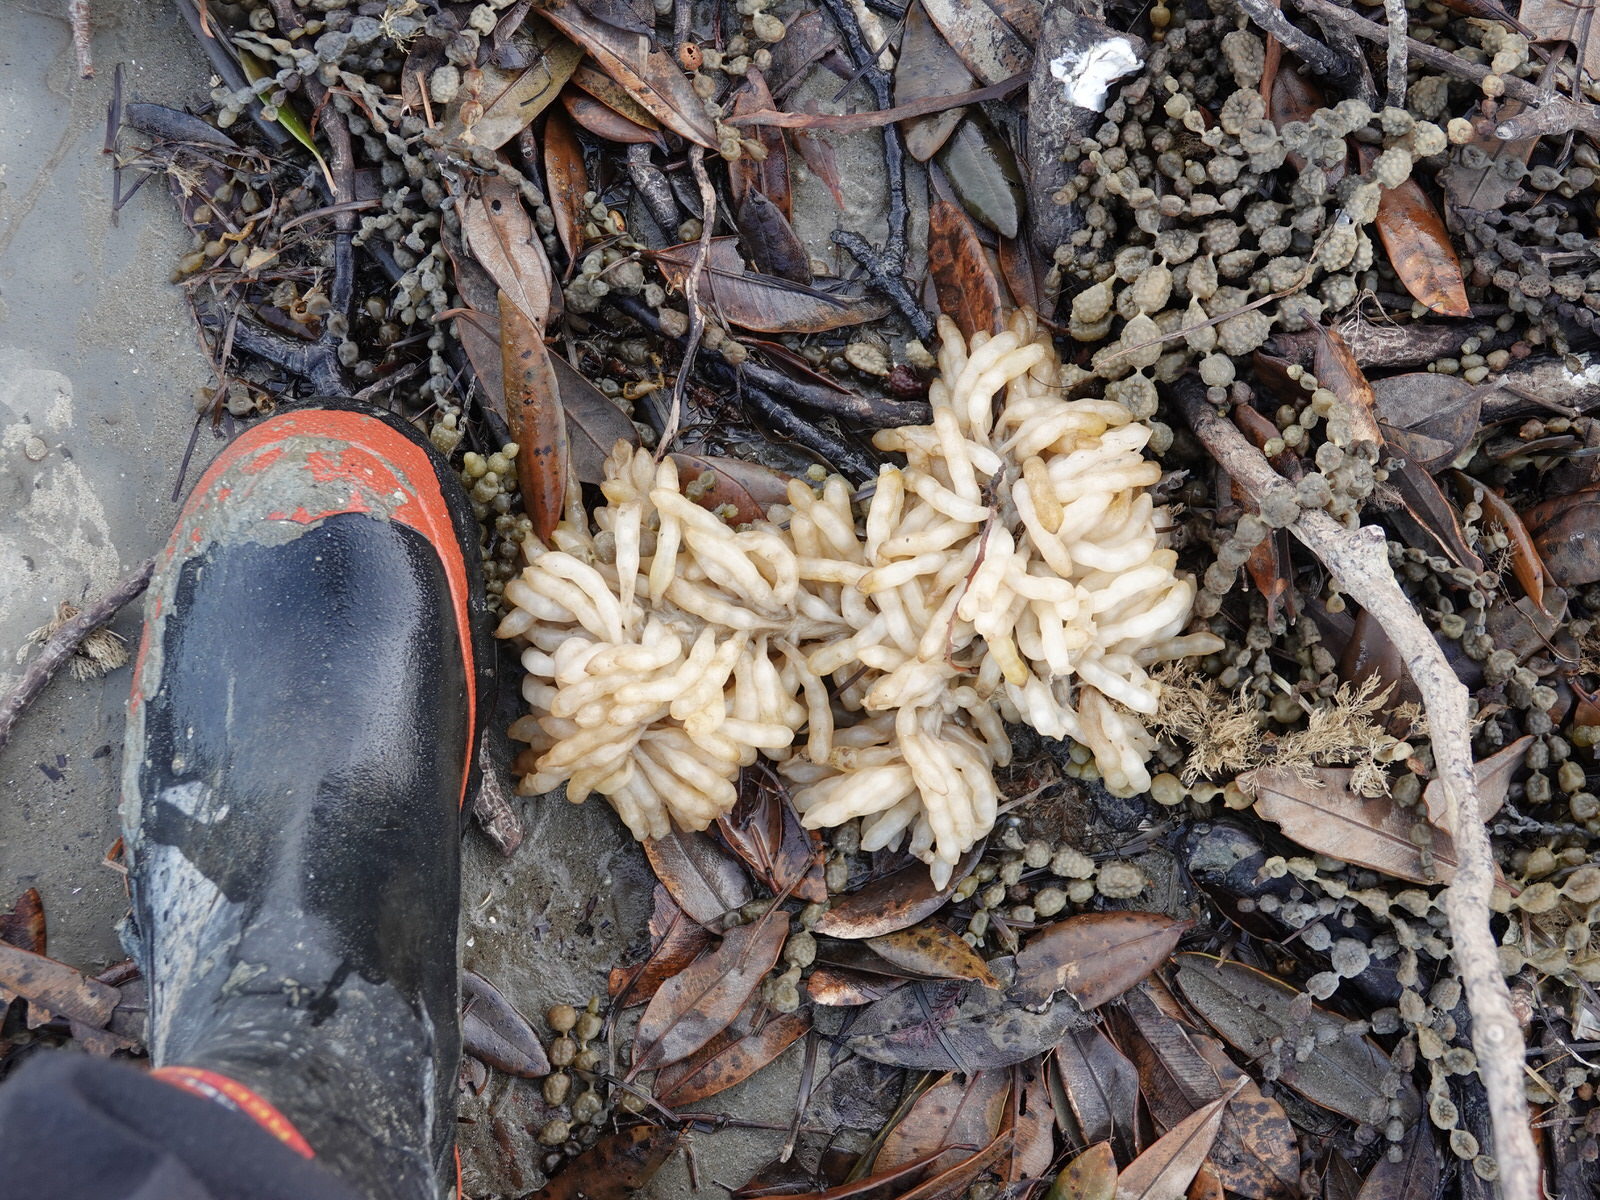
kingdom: Animalia
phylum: Mollusca
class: Cephalopoda
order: Myopsida
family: Loliginidae
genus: Sepioteuthis
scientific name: Sepioteuthis australis
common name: Southern reef squid
